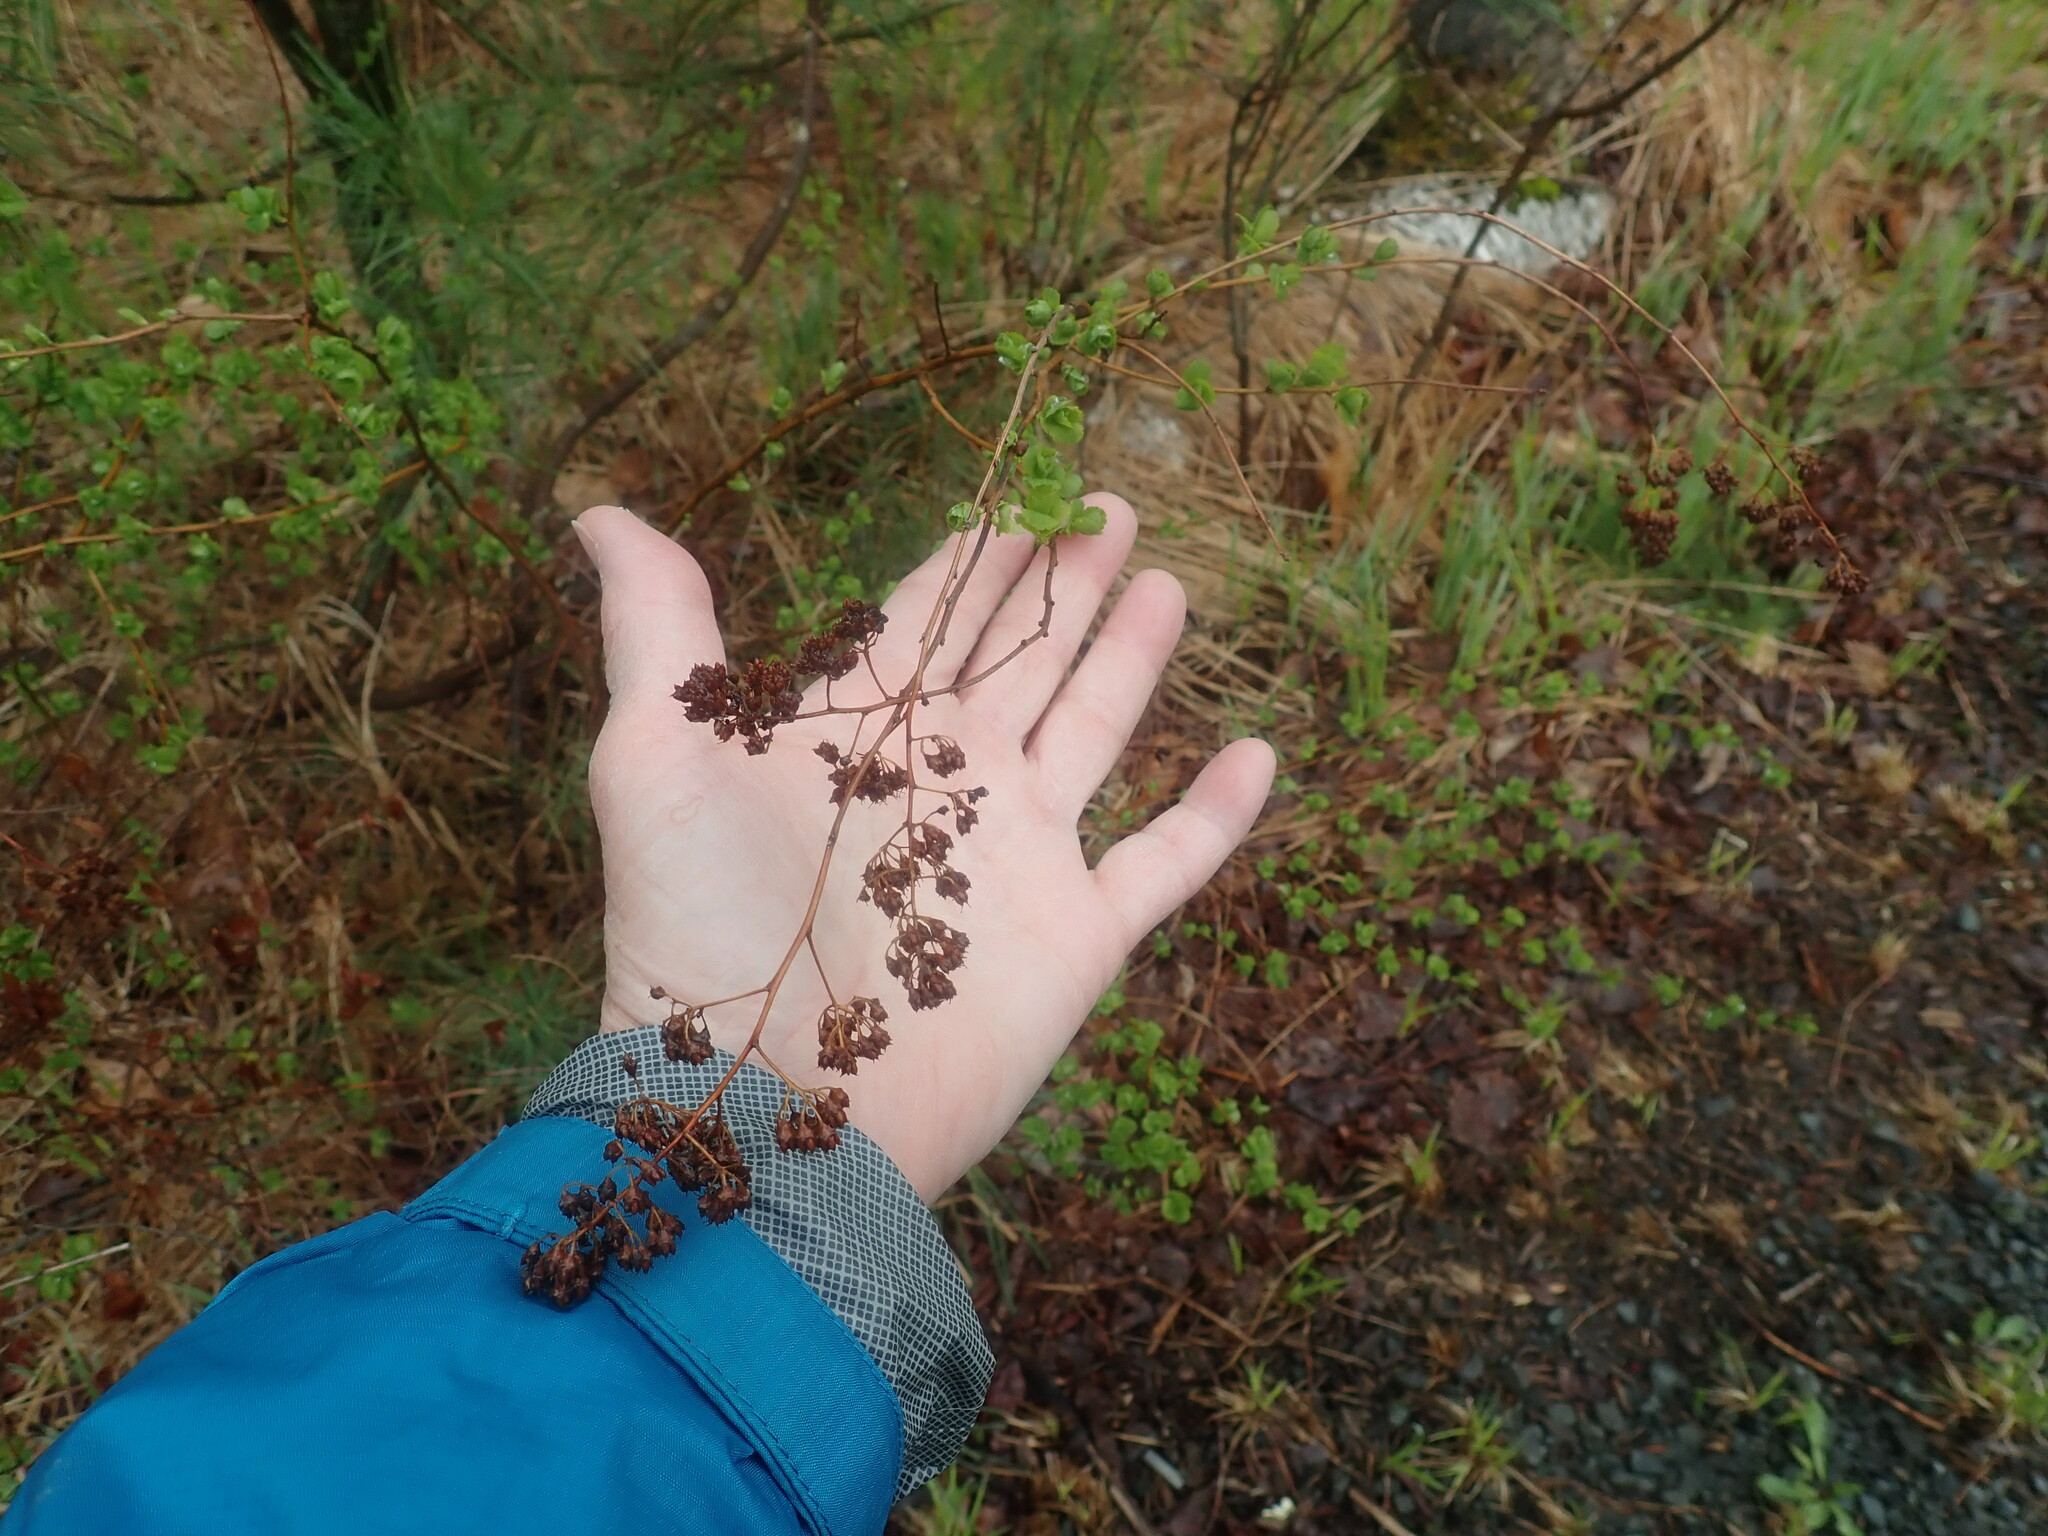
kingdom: Plantae
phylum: Tracheophyta
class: Magnoliopsida
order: Rosales
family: Rosaceae
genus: Spiraea
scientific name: Spiraea alba
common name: Pale bridewort
